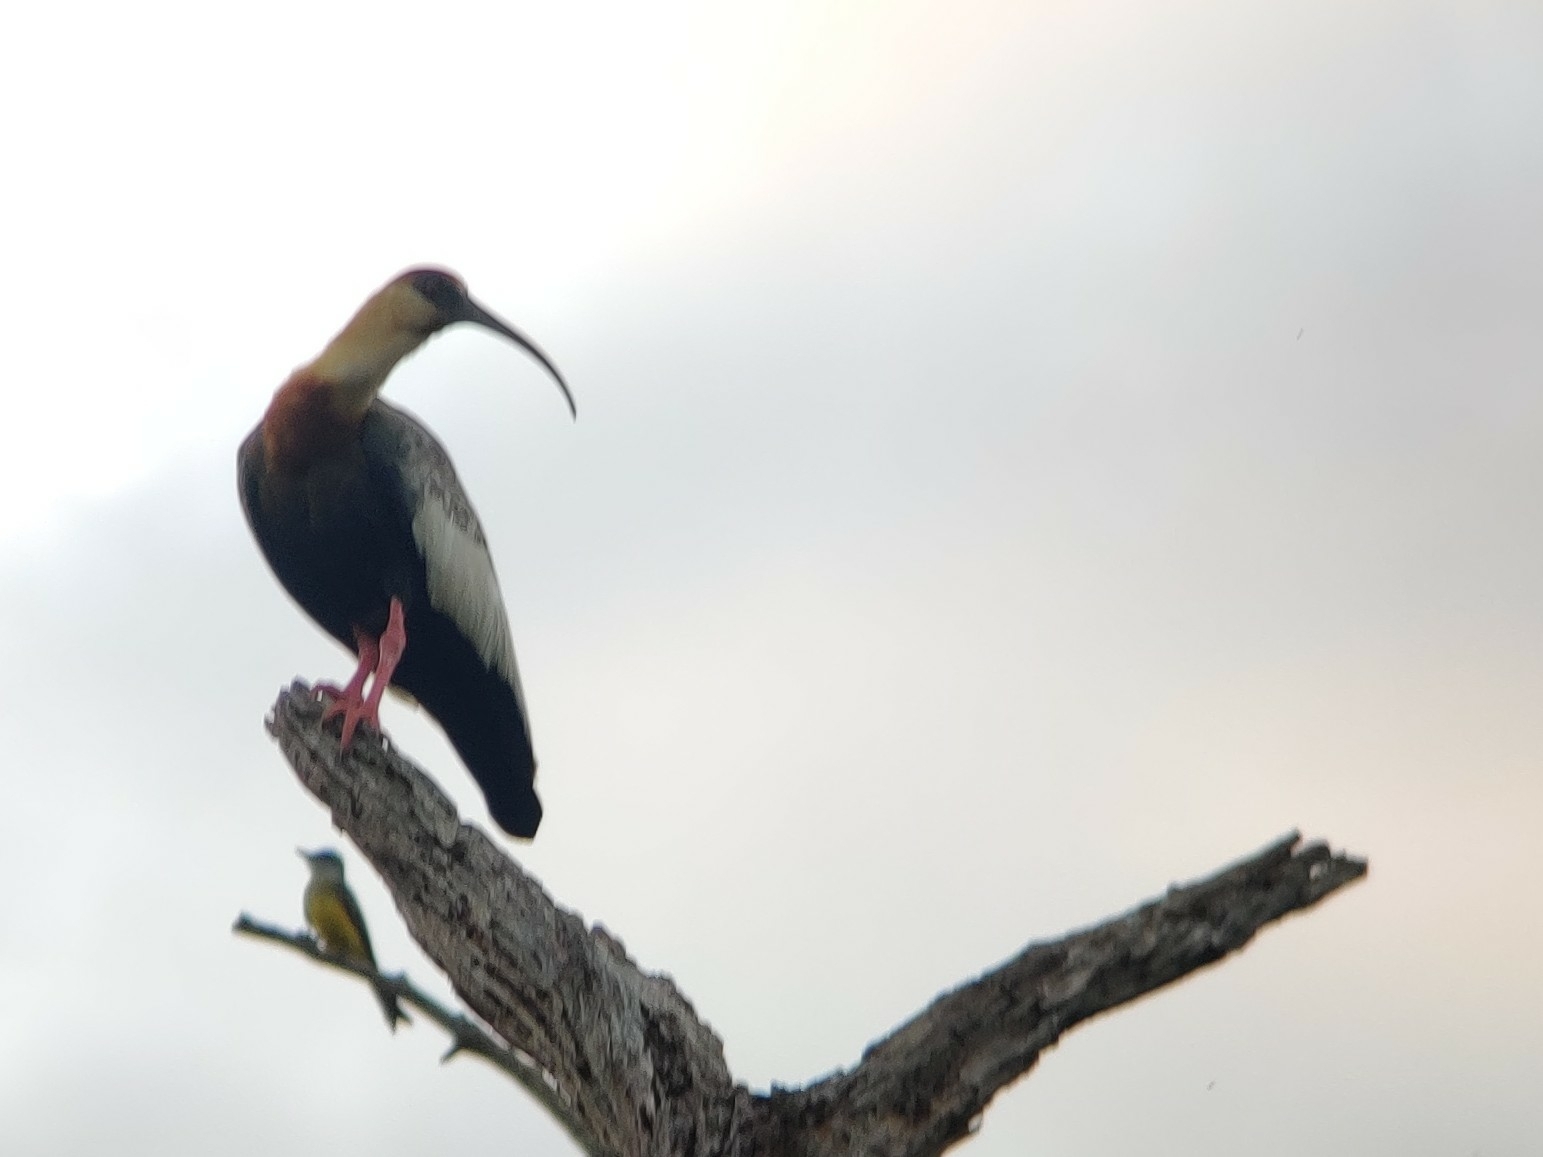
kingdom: Animalia
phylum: Chordata
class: Aves
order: Pelecaniformes
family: Threskiornithidae
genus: Theristicus
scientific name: Theristicus caudatus
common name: Buff-necked ibis
